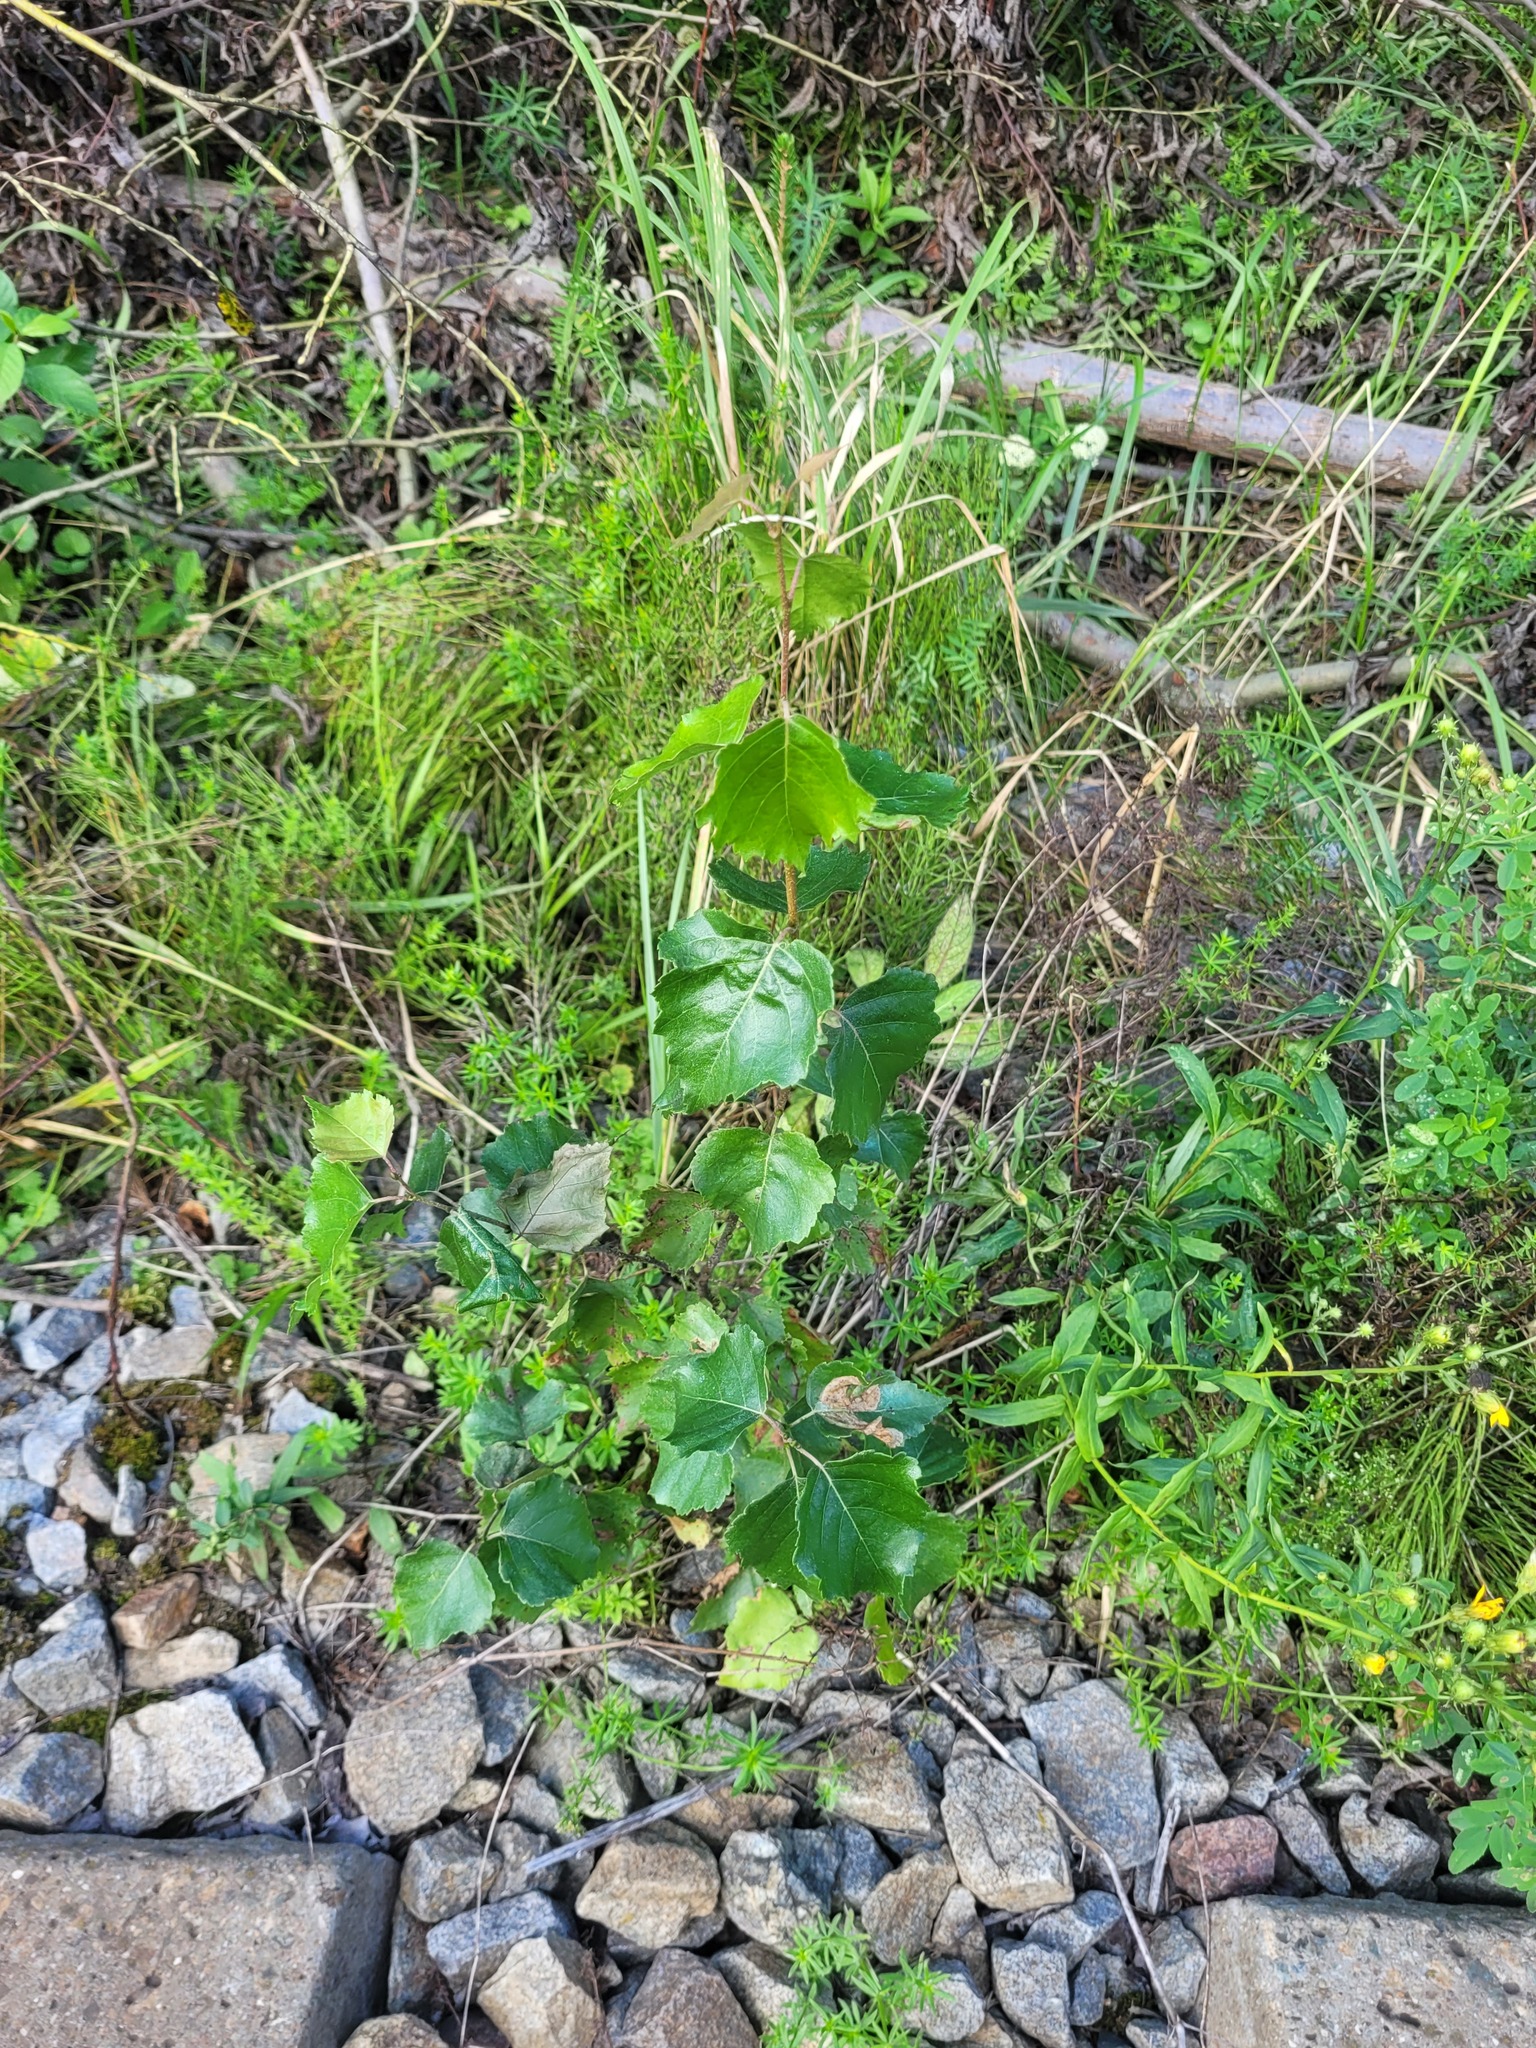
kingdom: Plantae
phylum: Tracheophyta
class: Magnoliopsida
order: Fagales
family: Betulaceae
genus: Betula
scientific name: Betula pendula
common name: Silver birch
